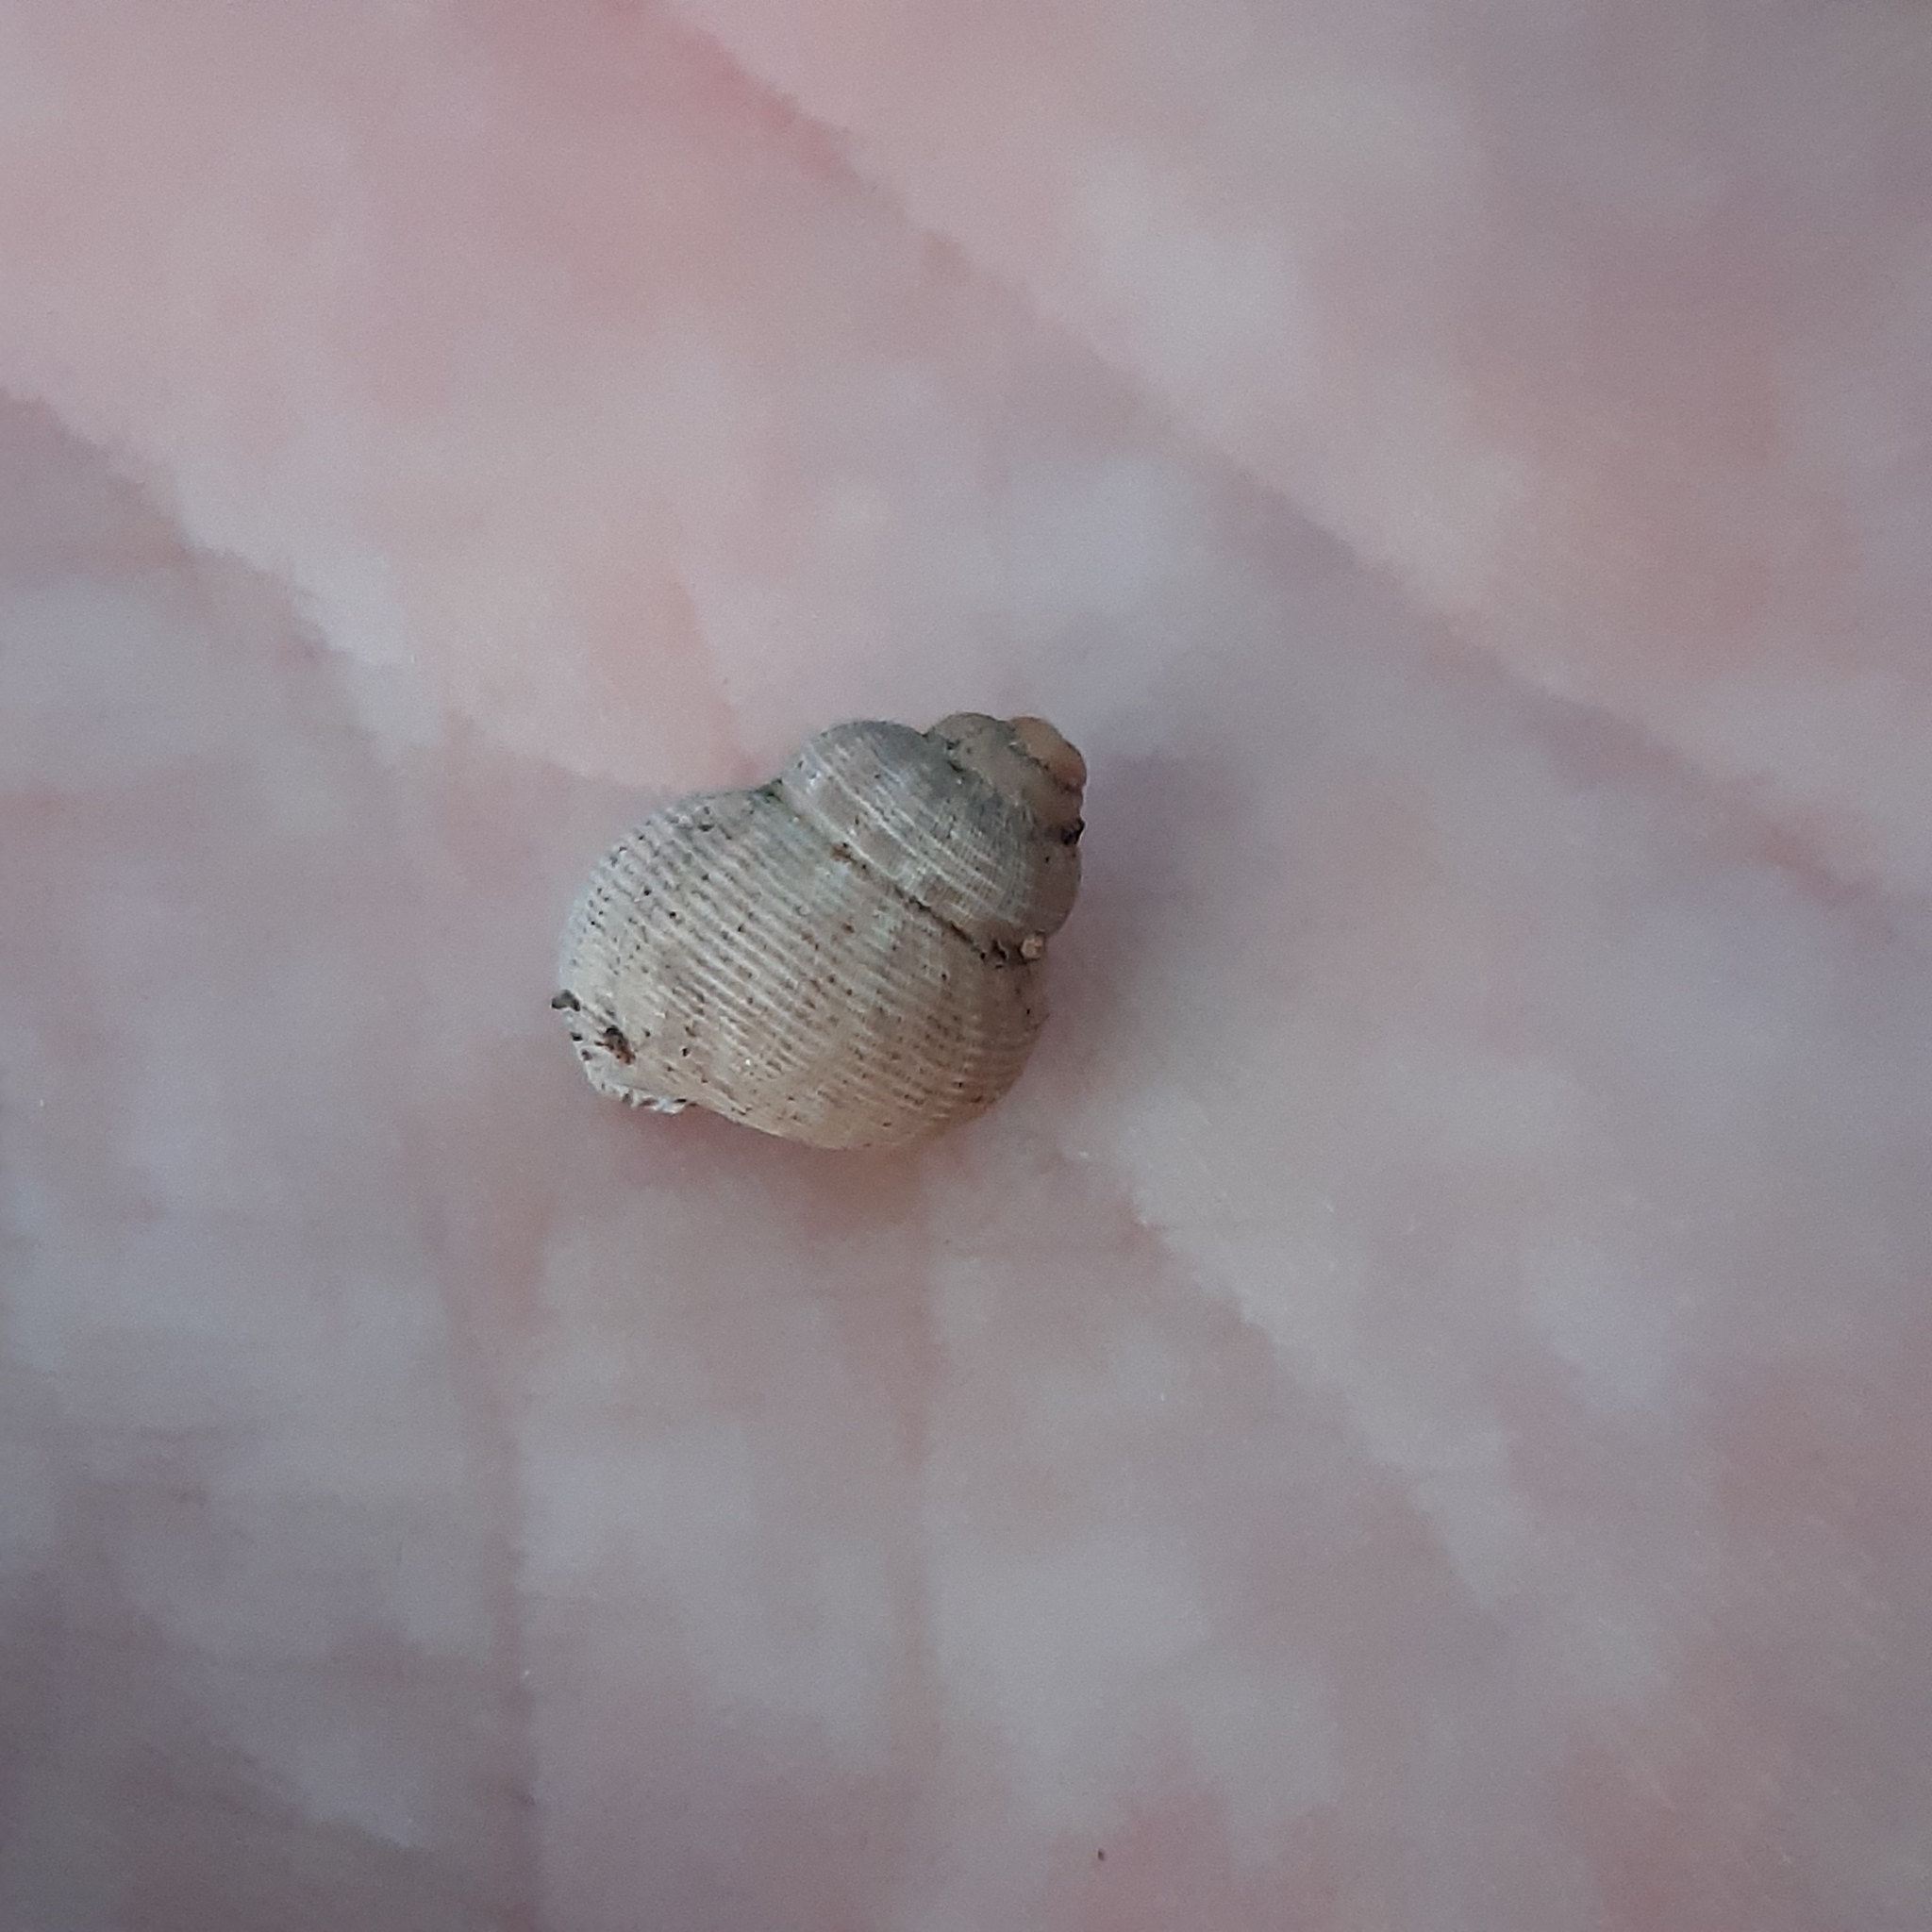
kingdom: Animalia
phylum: Mollusca
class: Gastropoda
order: Littorinimorpha
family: Pomatiidae
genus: Pomatias
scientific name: Pomatias elegans
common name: Red-mouthed snail
